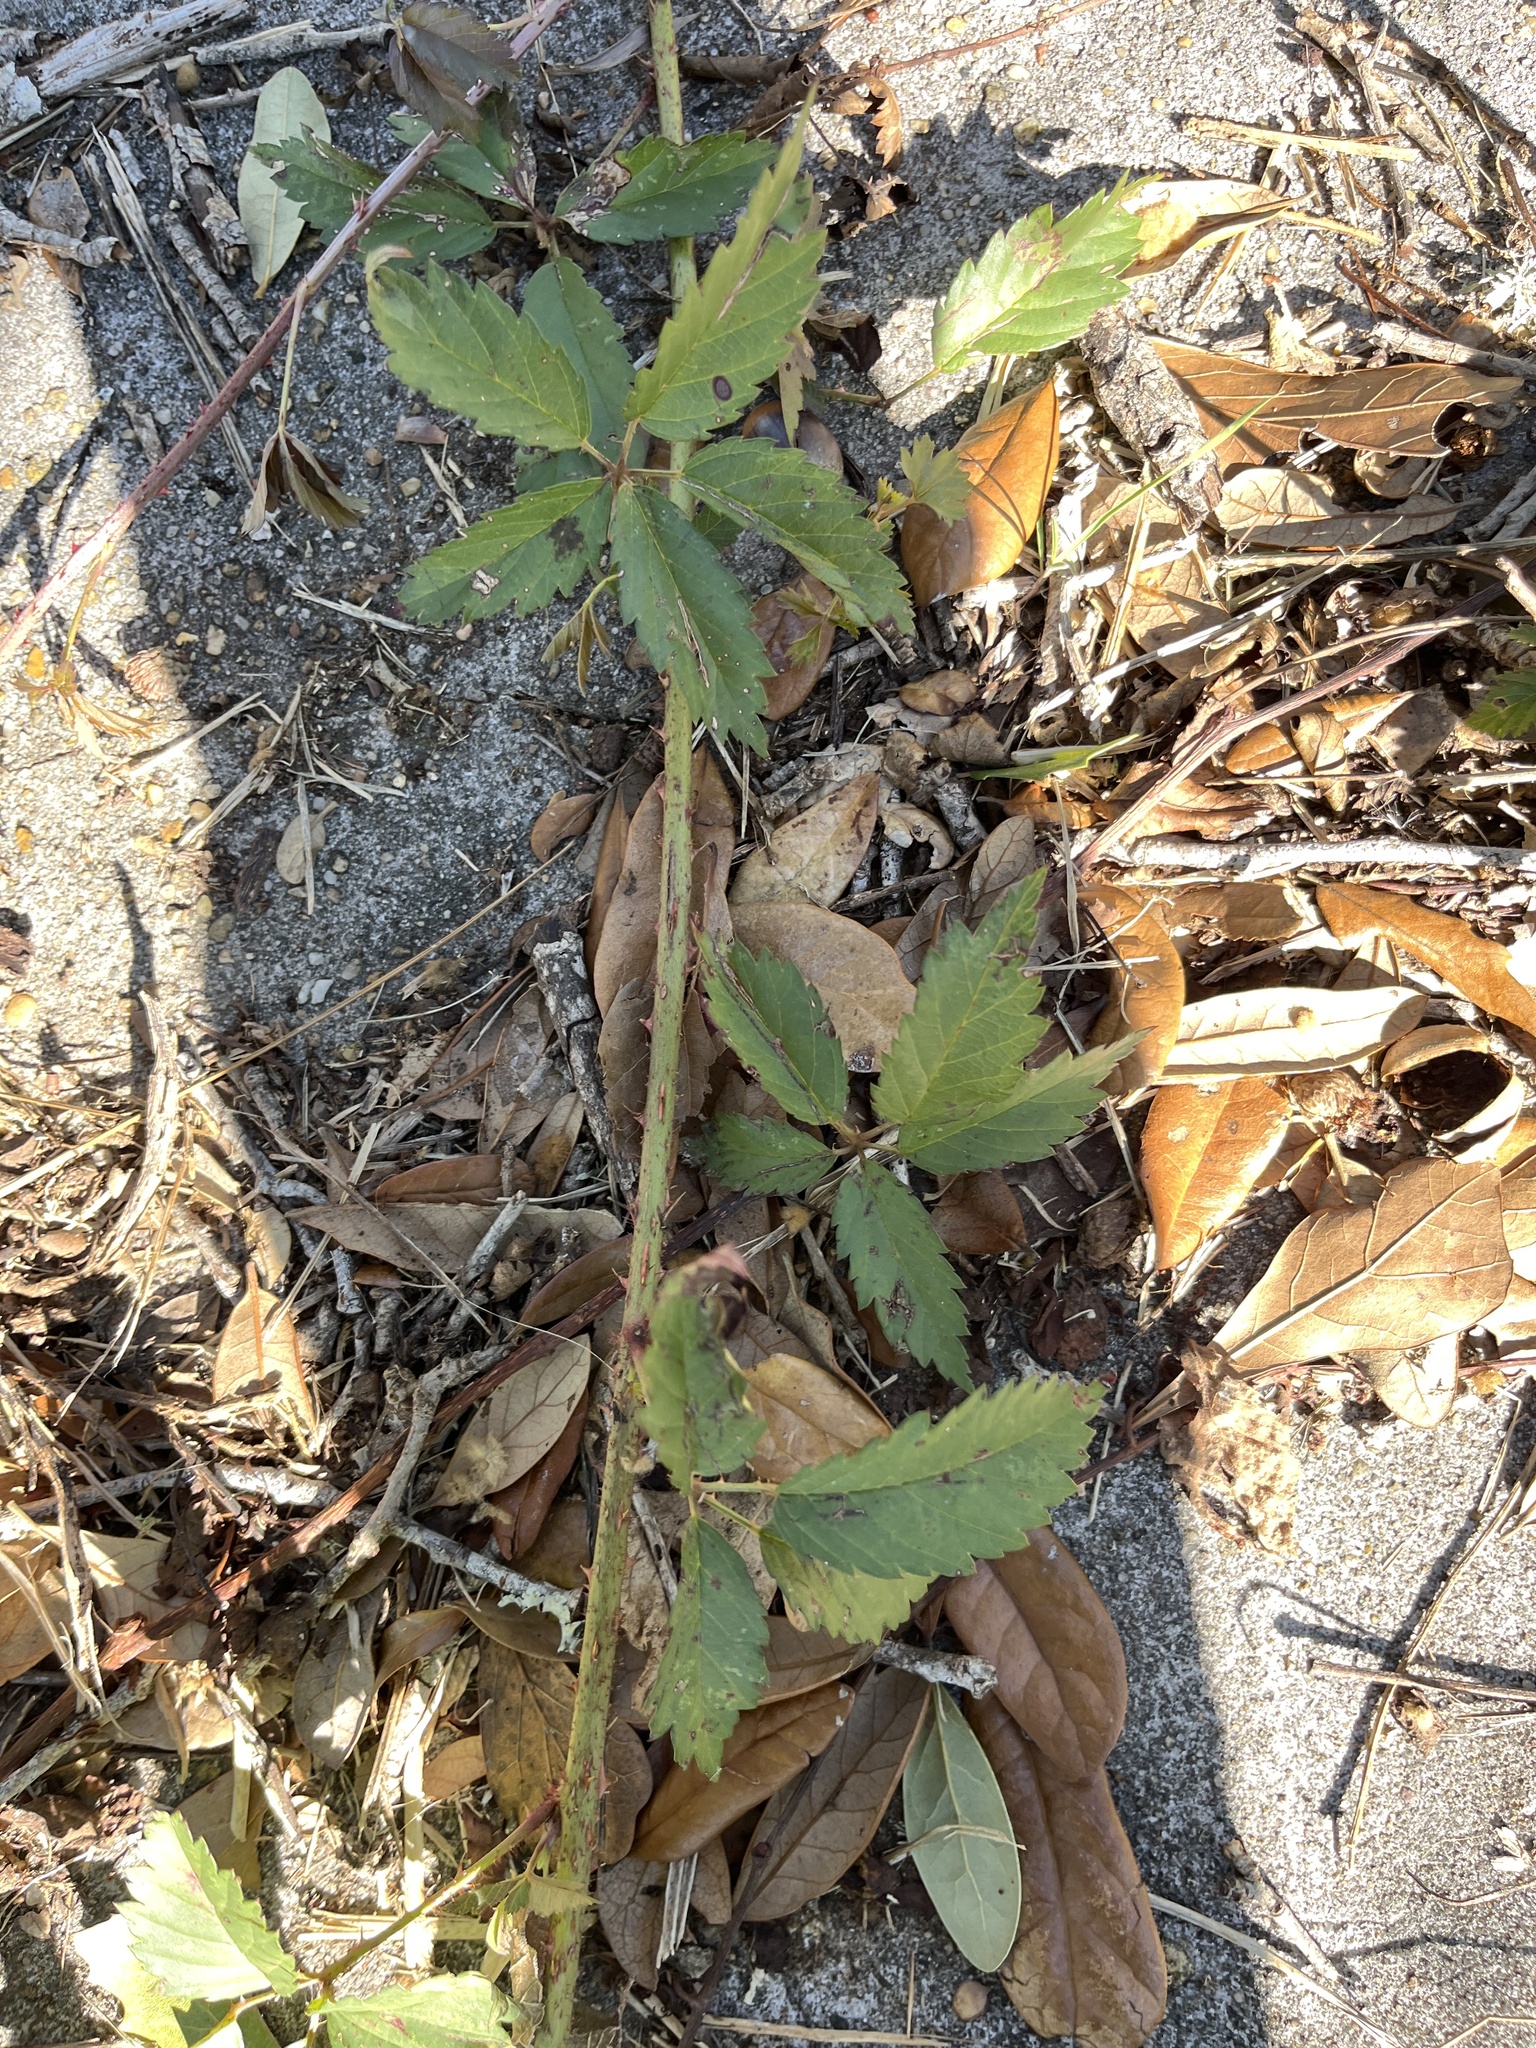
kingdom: Plantae
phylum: Tracheophyta
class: Magnoliopsida
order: Rosales
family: Rosaceae
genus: Rubus
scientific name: Rubus trivialis
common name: Southern dewberry
